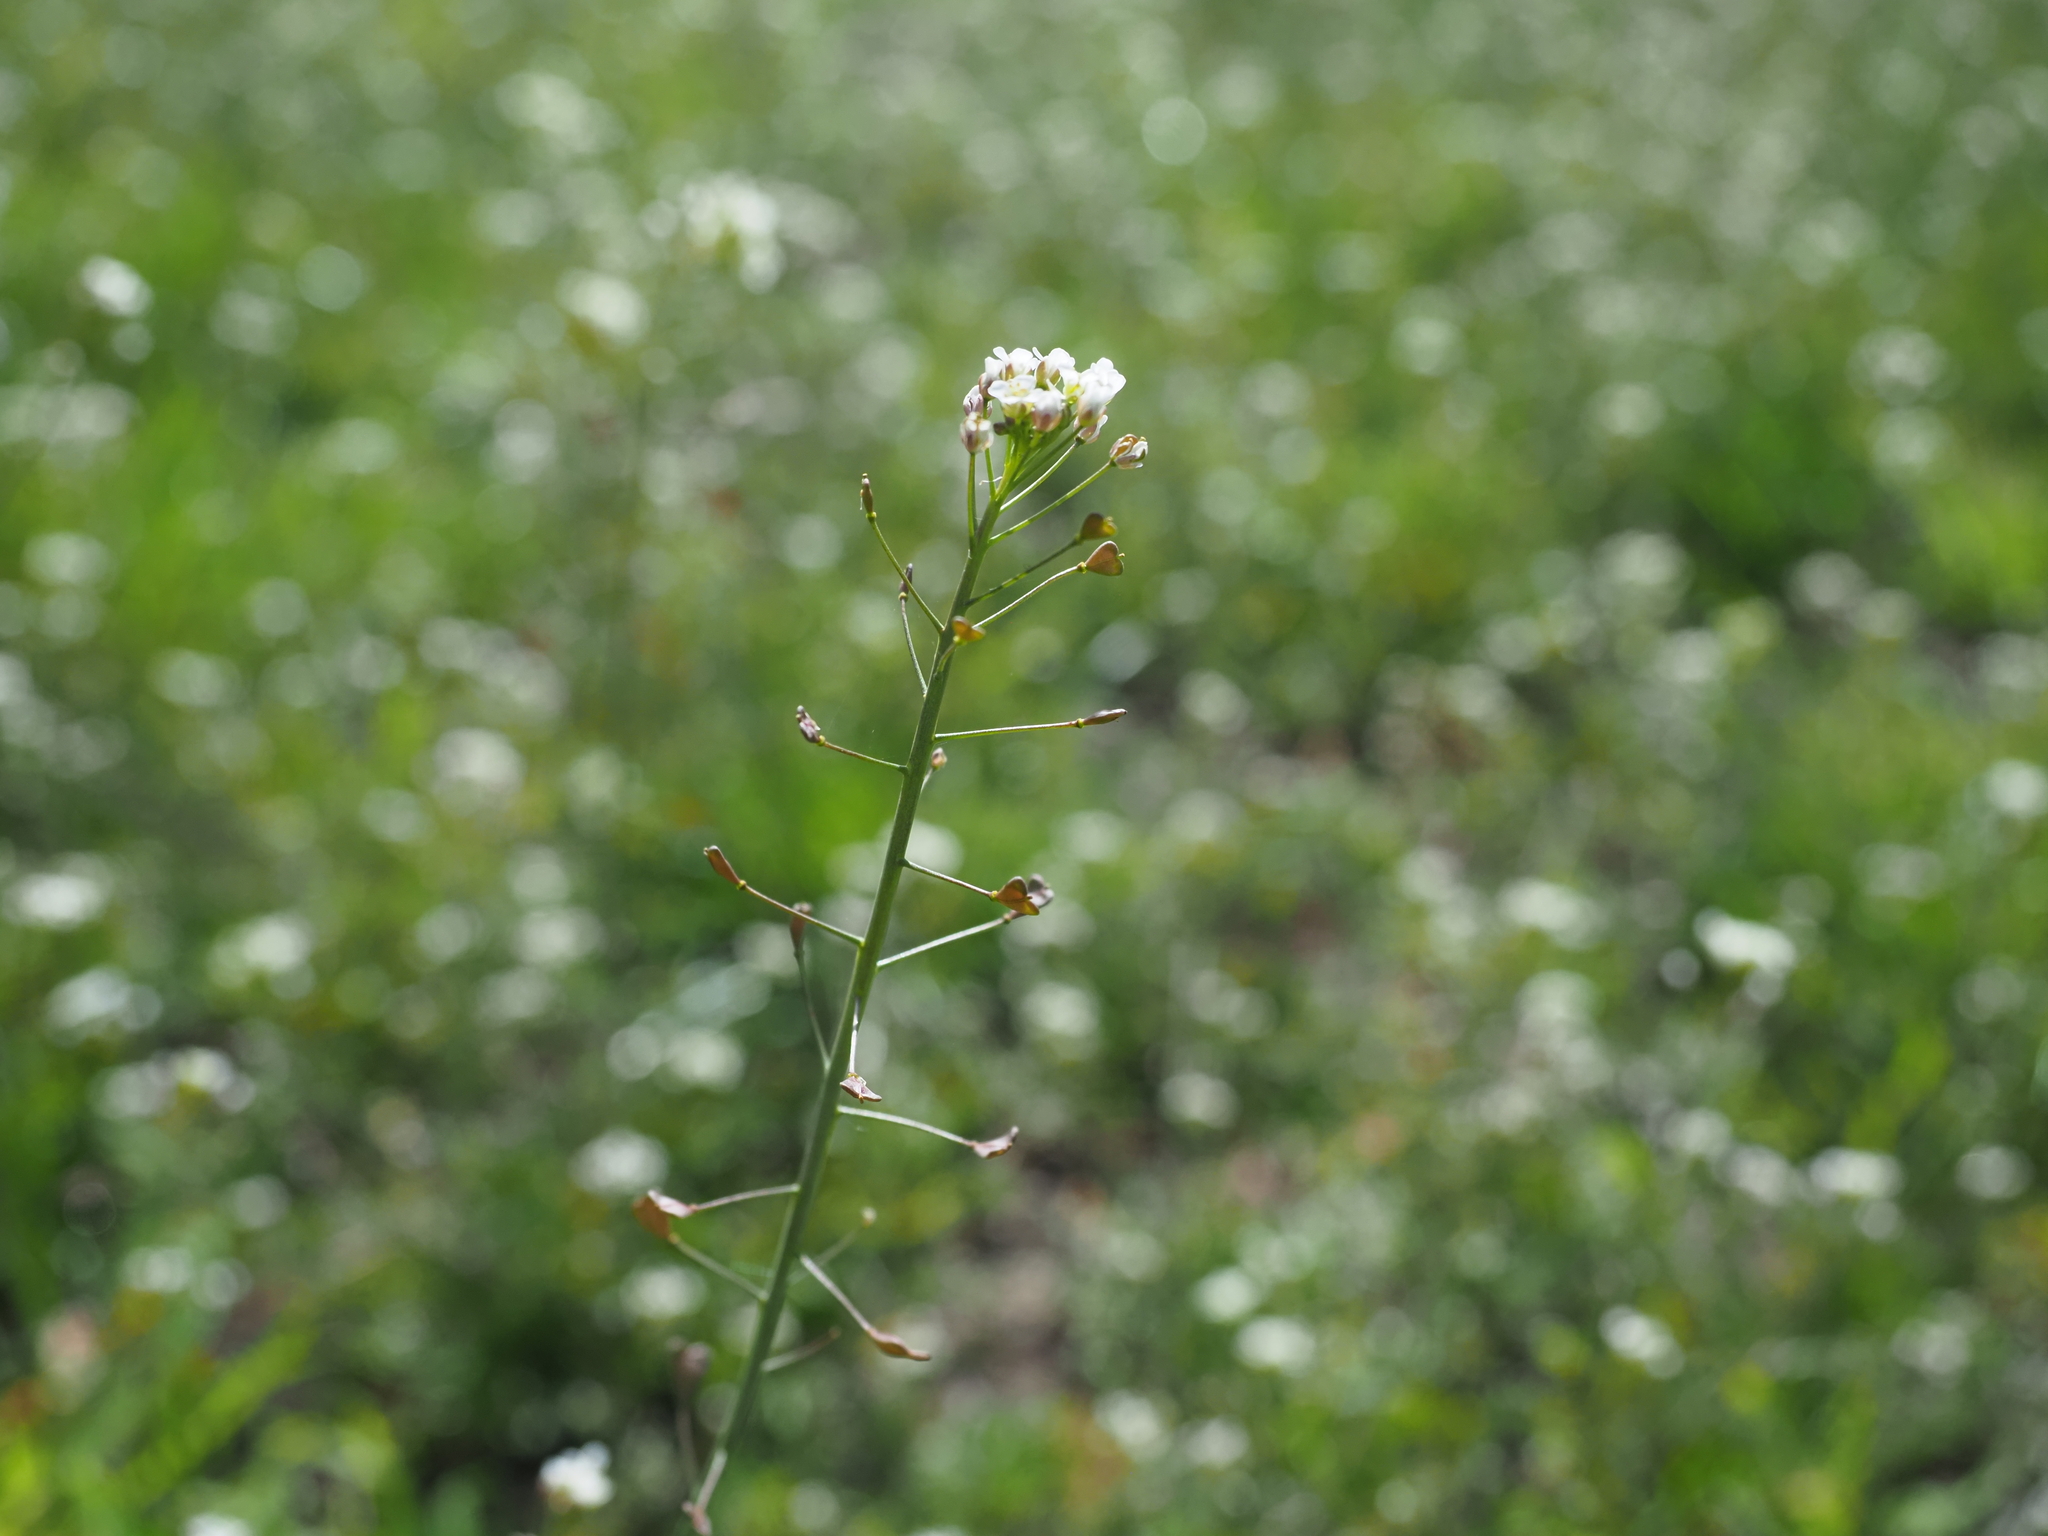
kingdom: Plantae
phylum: Tracheophyta
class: Magnoliopsida
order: Brassicales
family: Brassicaceae
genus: Capsella
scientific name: Capsella bursa-pastoris
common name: Shepherd's purse
